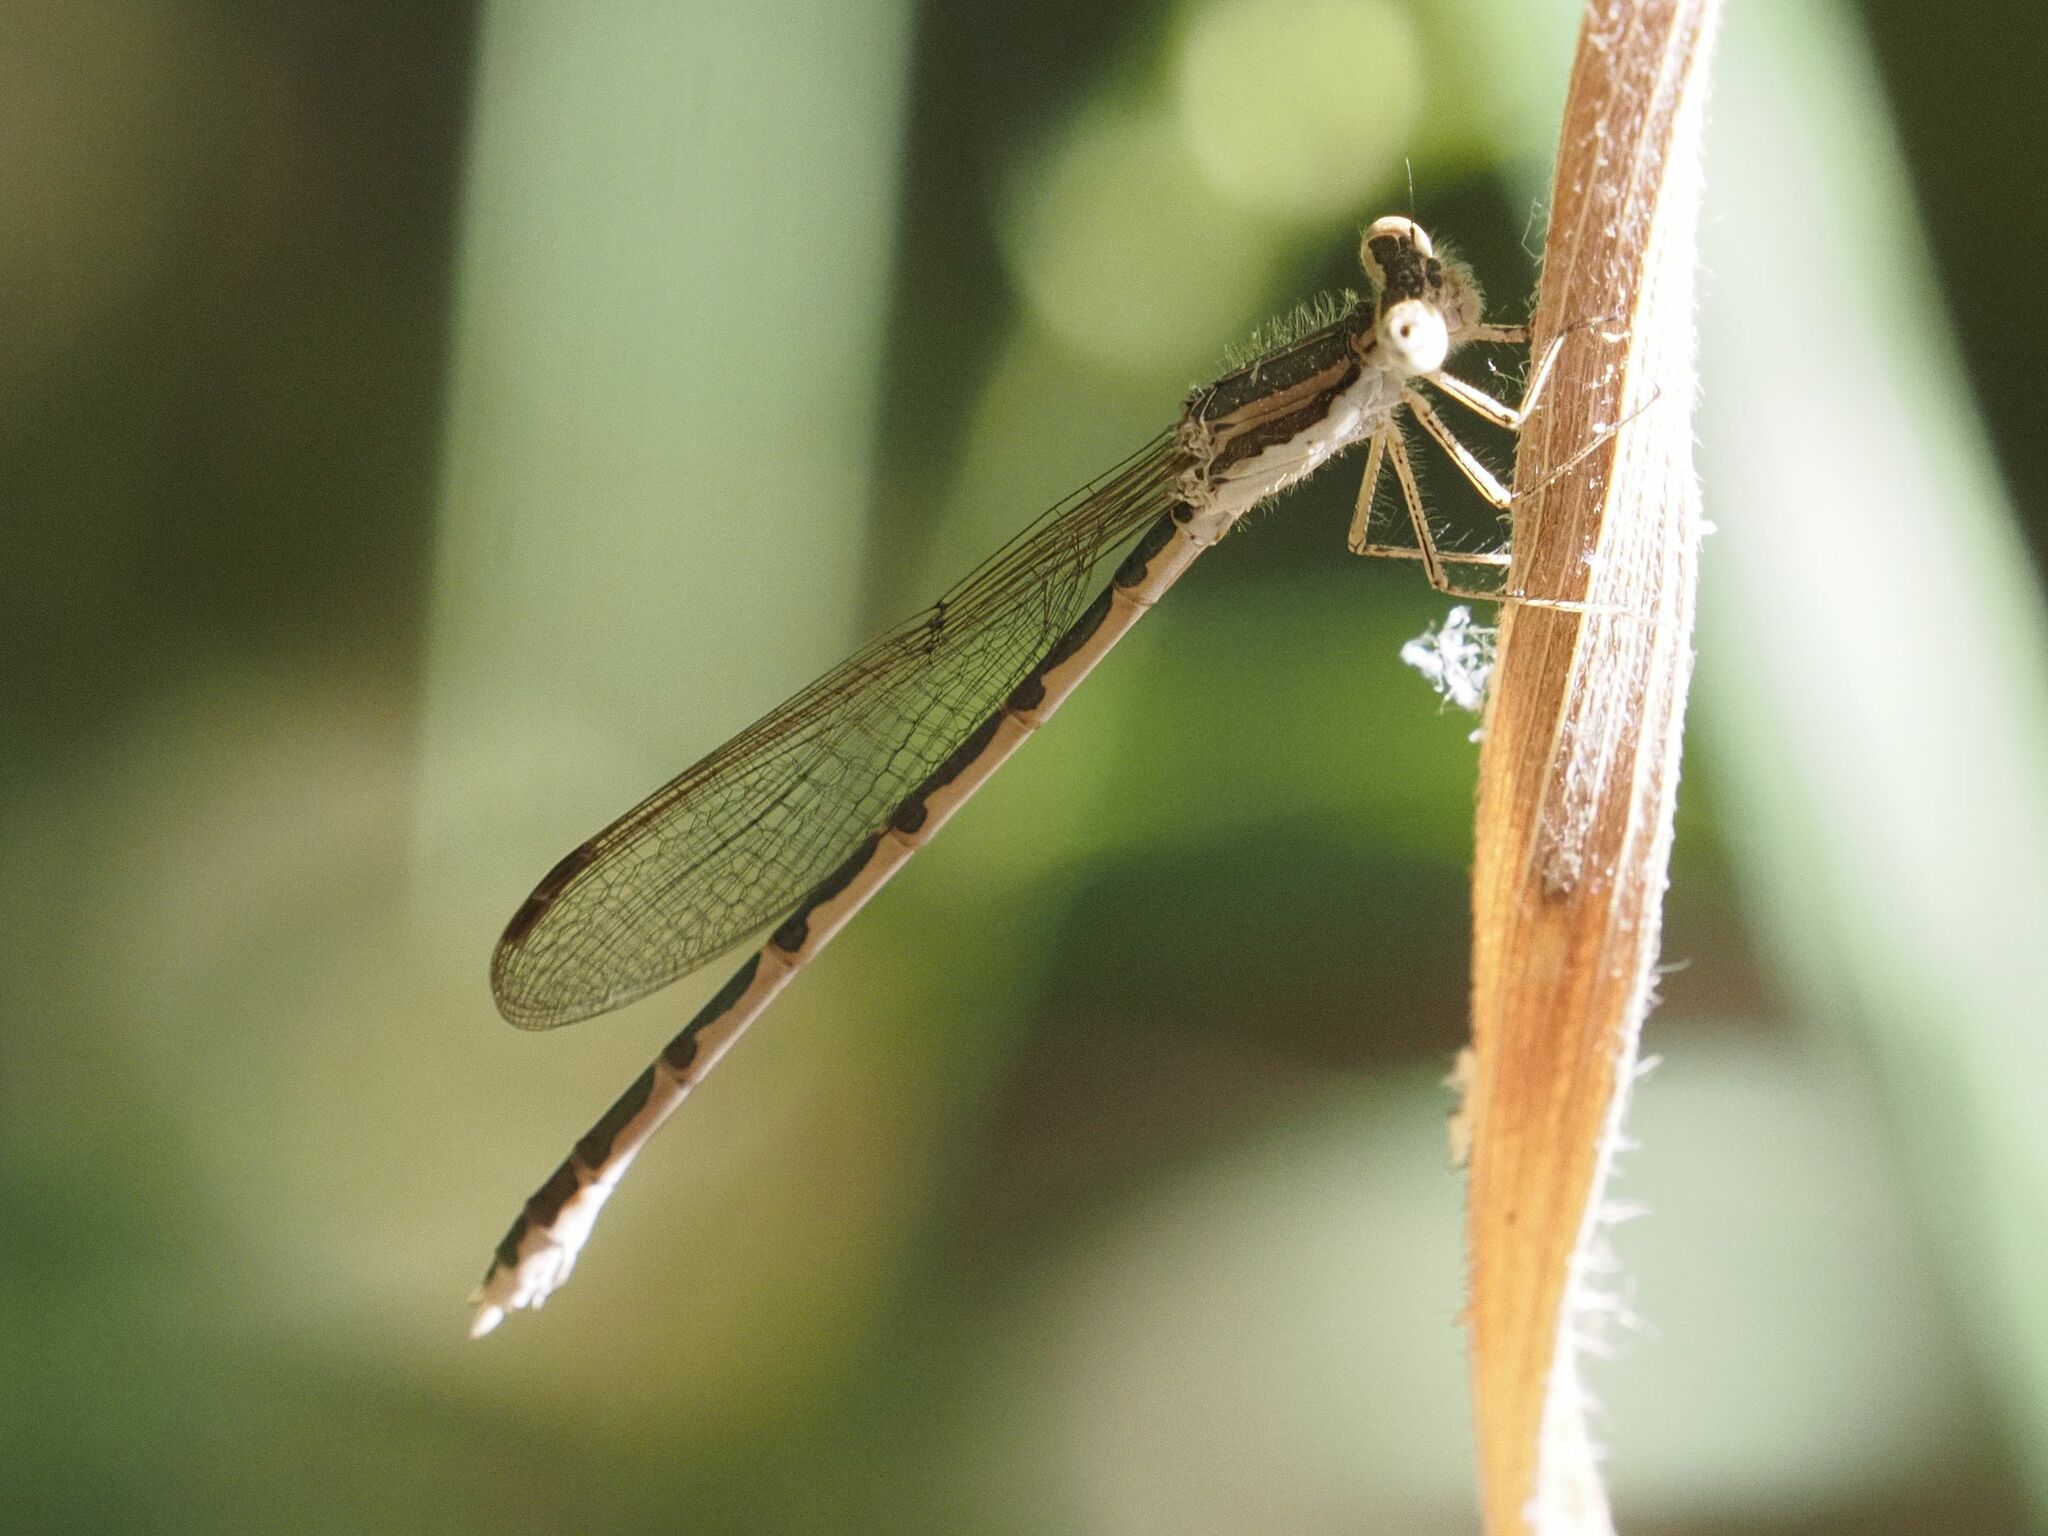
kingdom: Animalia
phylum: Arthropoda
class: Insecta
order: Odonata
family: Lestidae
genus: Sympecma
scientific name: Sympecma fusca
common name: Common winter damsel
